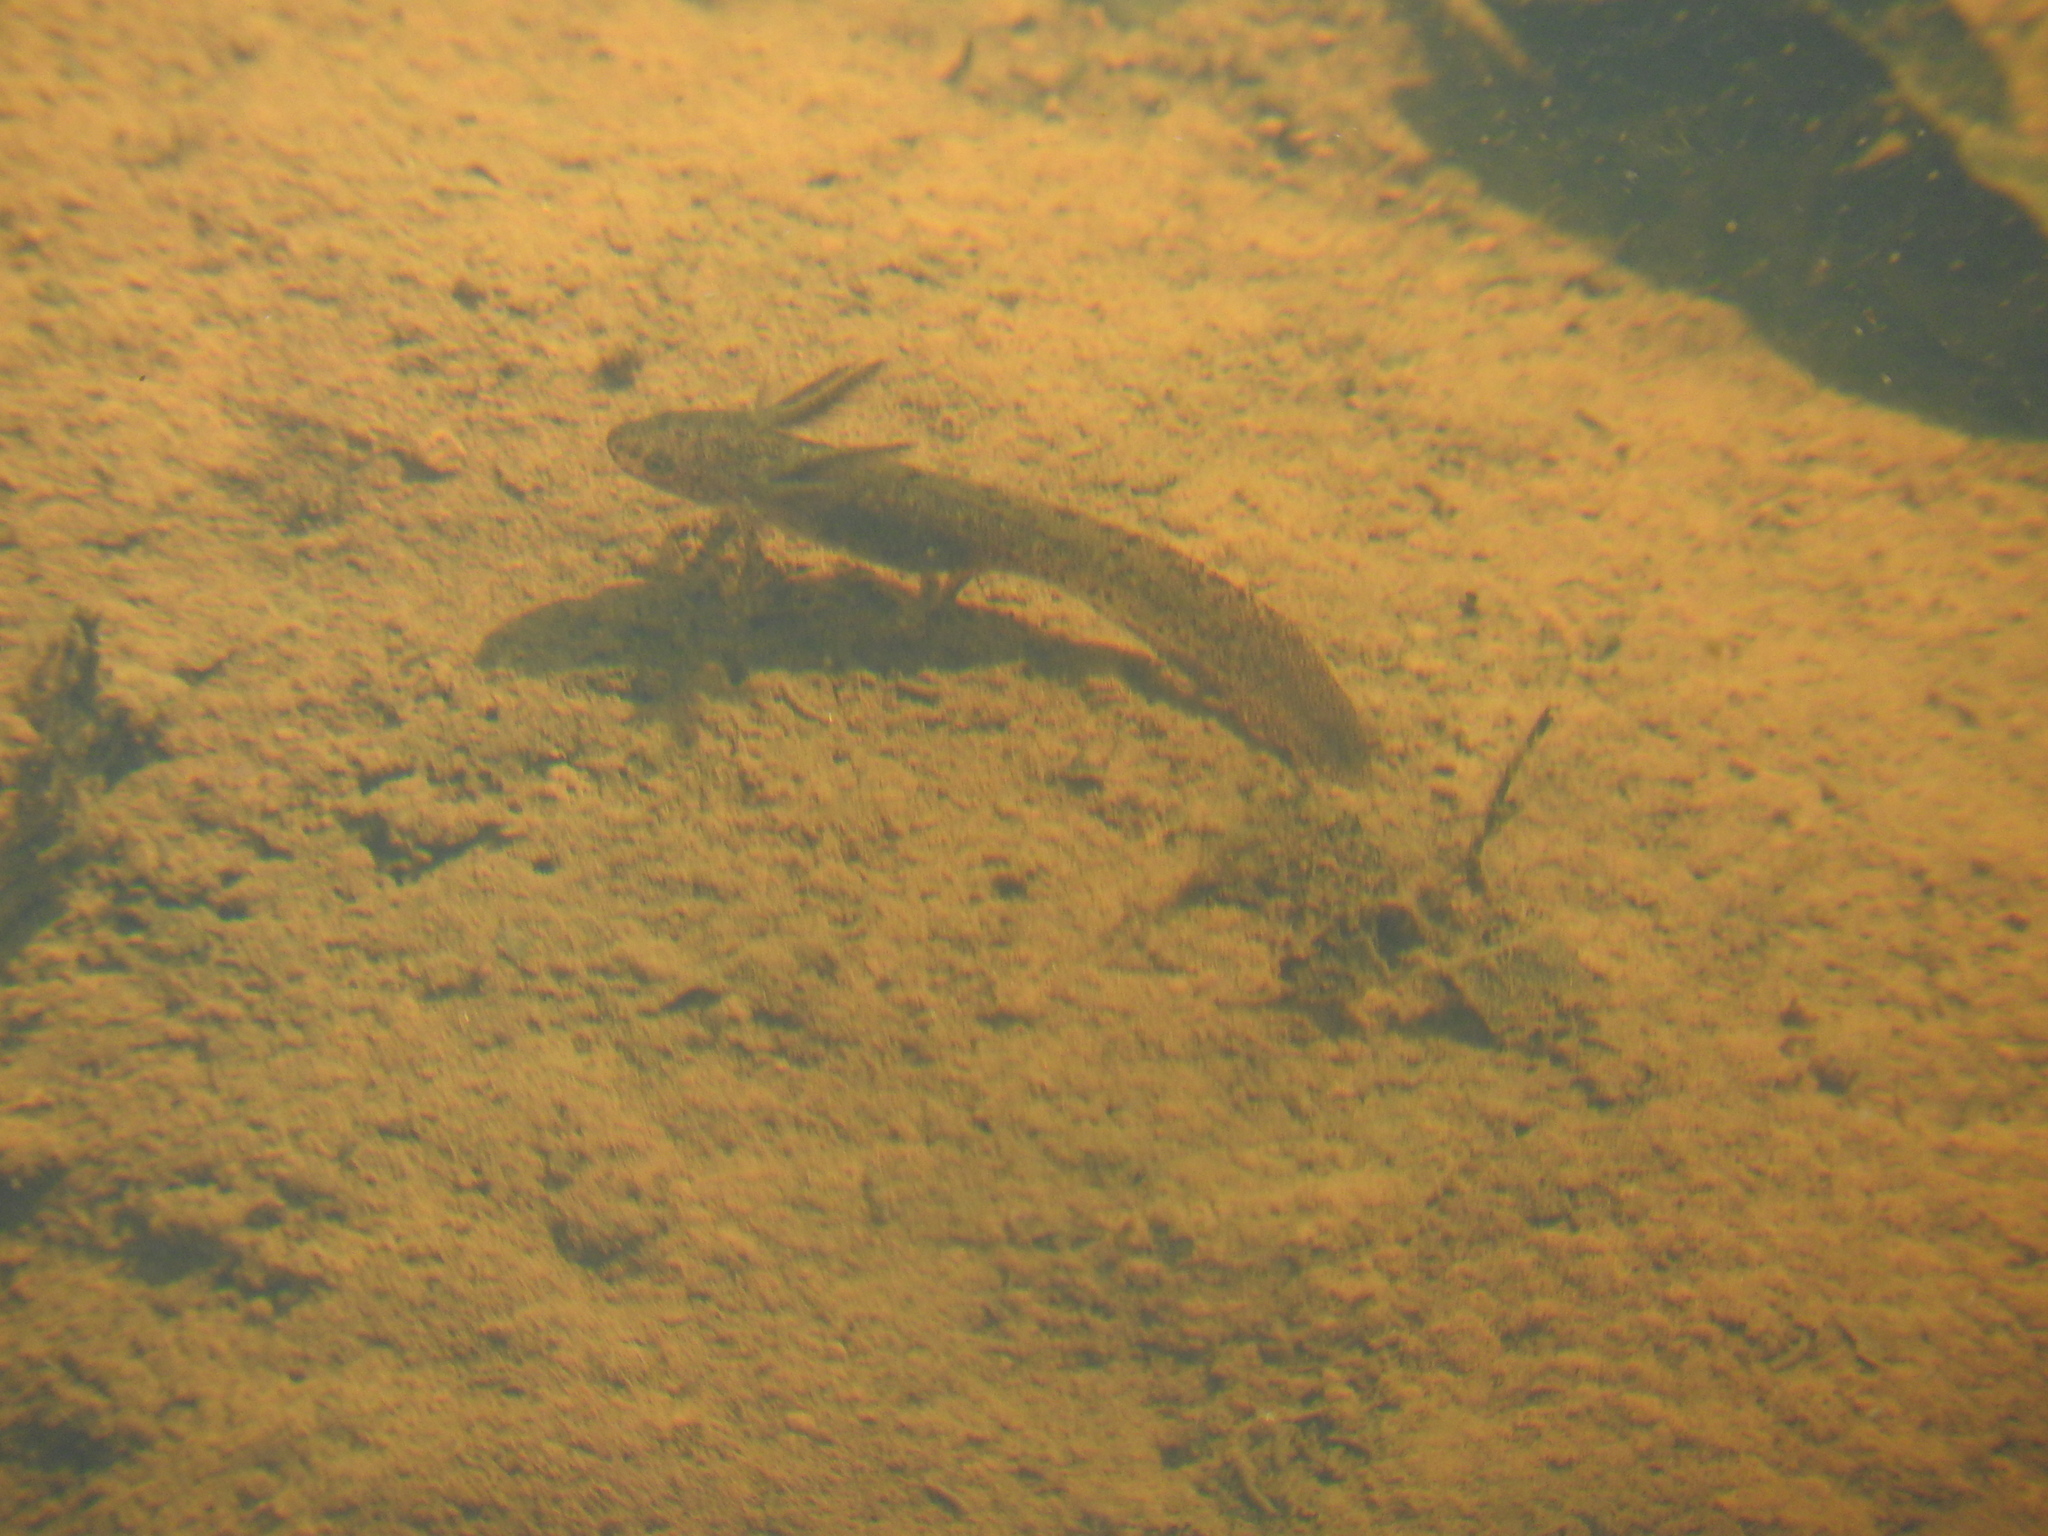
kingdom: Animalia
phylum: Chordata
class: Amphibia
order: Caudata
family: Salamandridae
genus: Ichthyosaura
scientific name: Ichthyosaura alpestris
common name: Alpine newt
